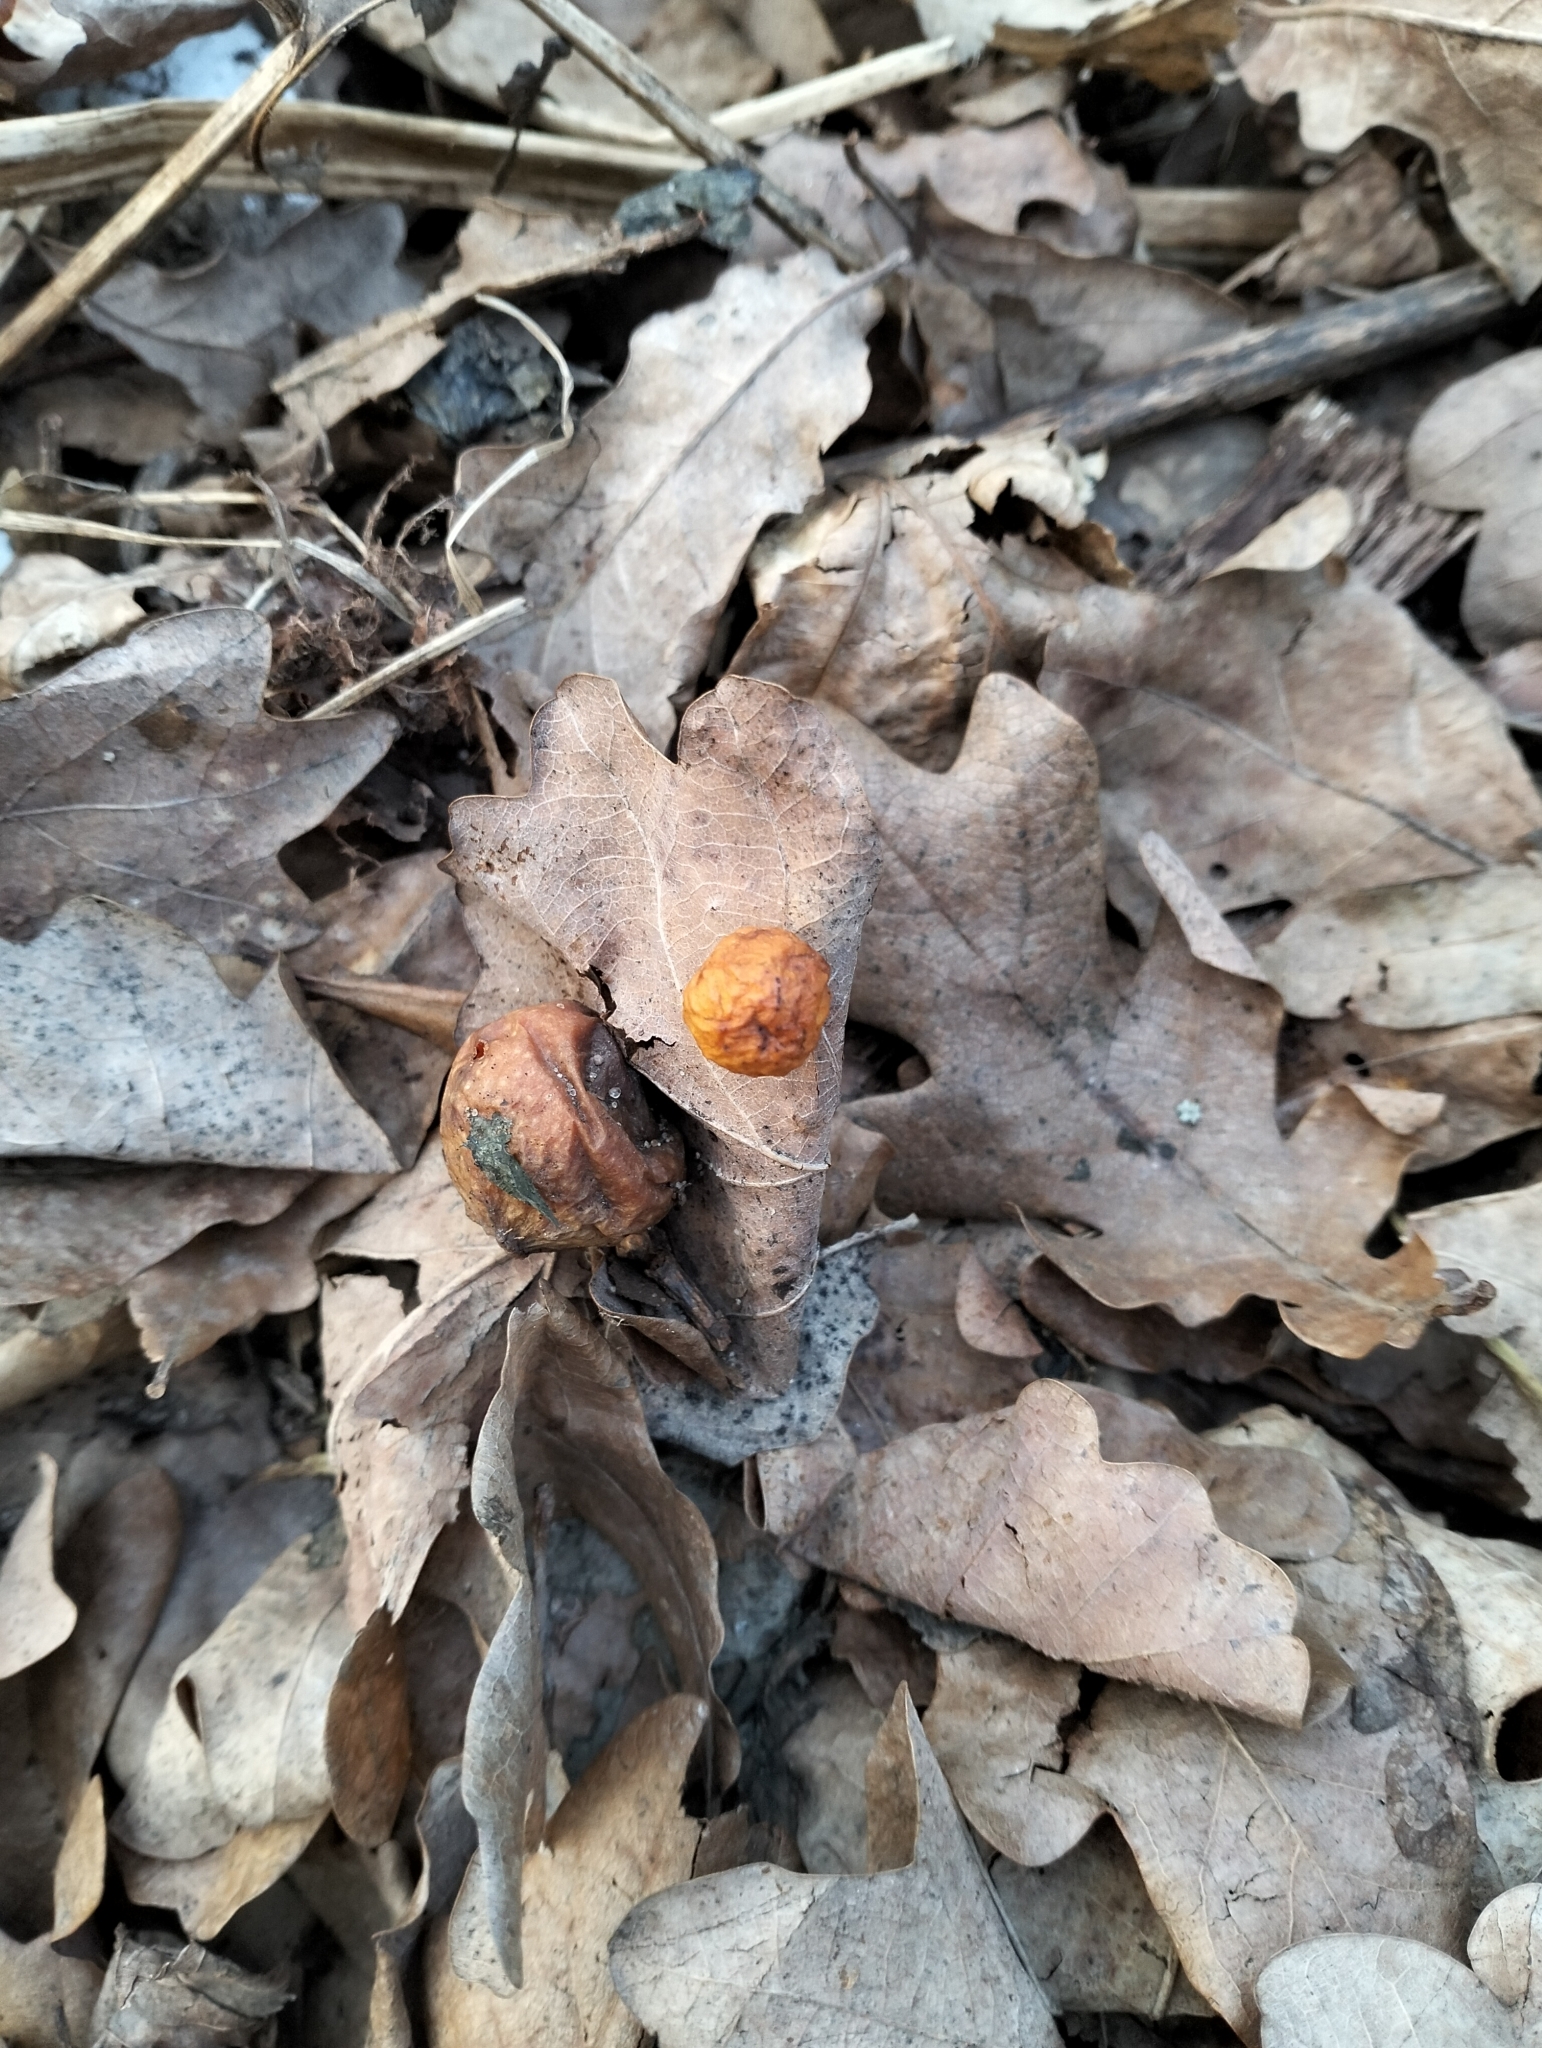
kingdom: Animalia
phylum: Arthropoda
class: Insecta
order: Hymenoptera
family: Cynipidae
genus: Cynips
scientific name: Cynips quercusfolii
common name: Cherry gall
